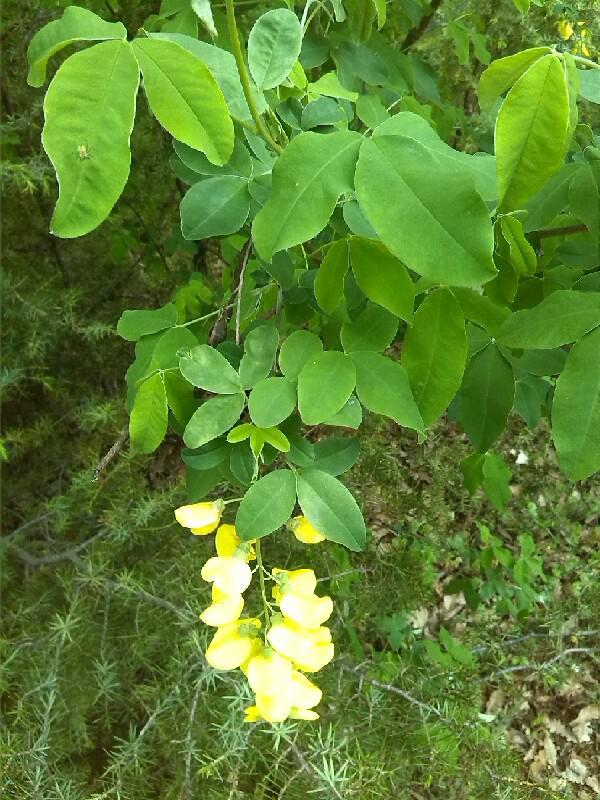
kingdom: Plantae
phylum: Tracheophyta
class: Magnoliopsida
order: Fabales
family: Fabaceae
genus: Laburnum
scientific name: Laburnum anagyroides
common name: Laburnum
